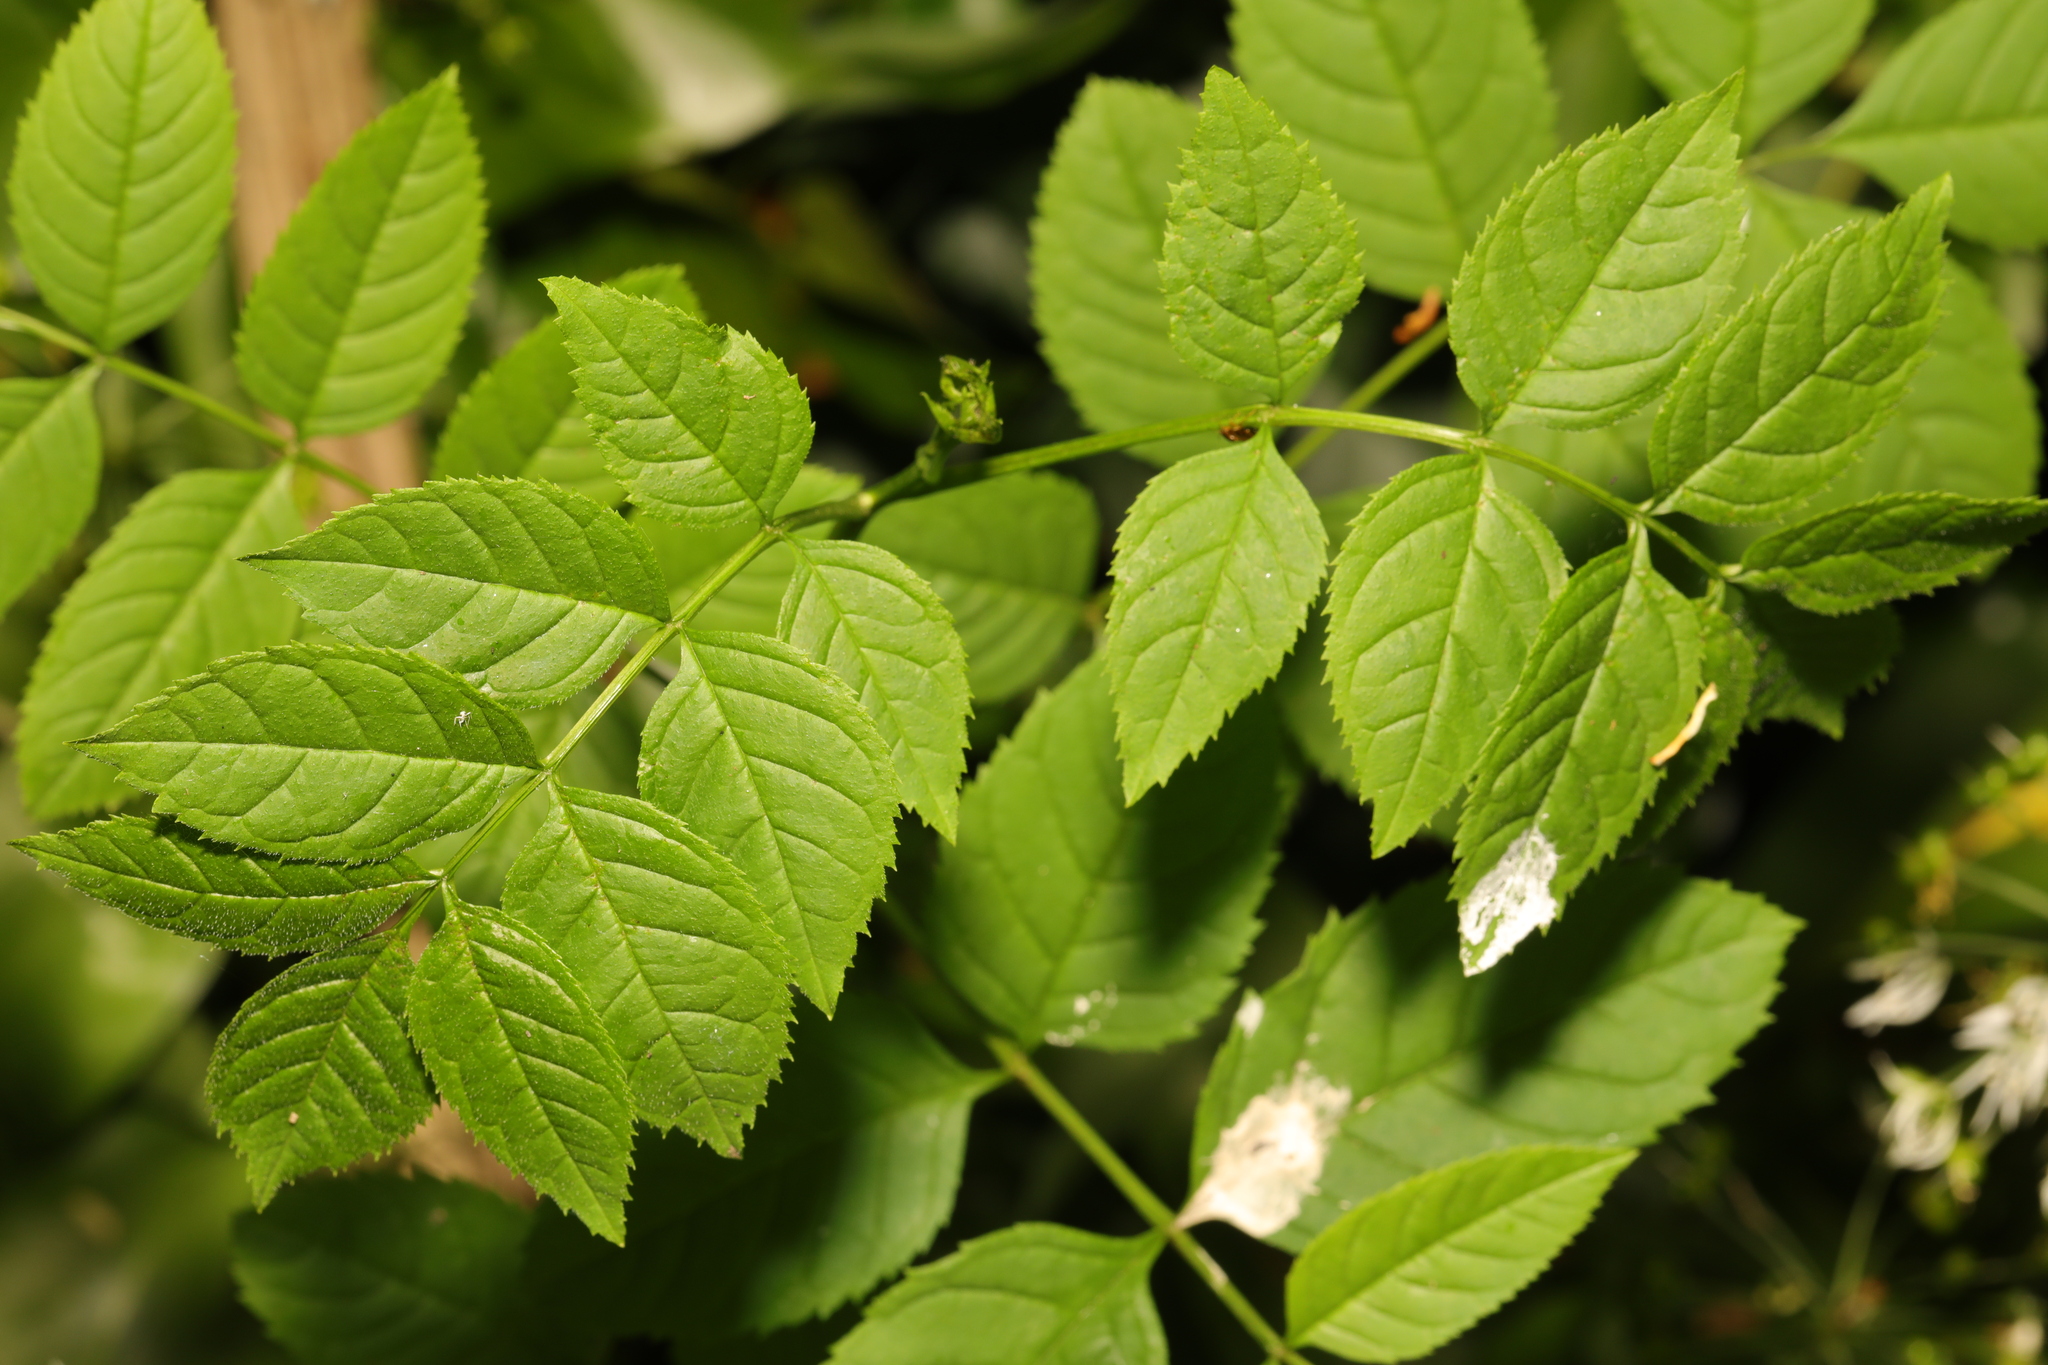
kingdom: Plantae
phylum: Tracheophyta
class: Magnoliopsida
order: Lamiales
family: Oleaceae
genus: Fraxinus
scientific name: Fraxinus excelsior
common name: European ash
